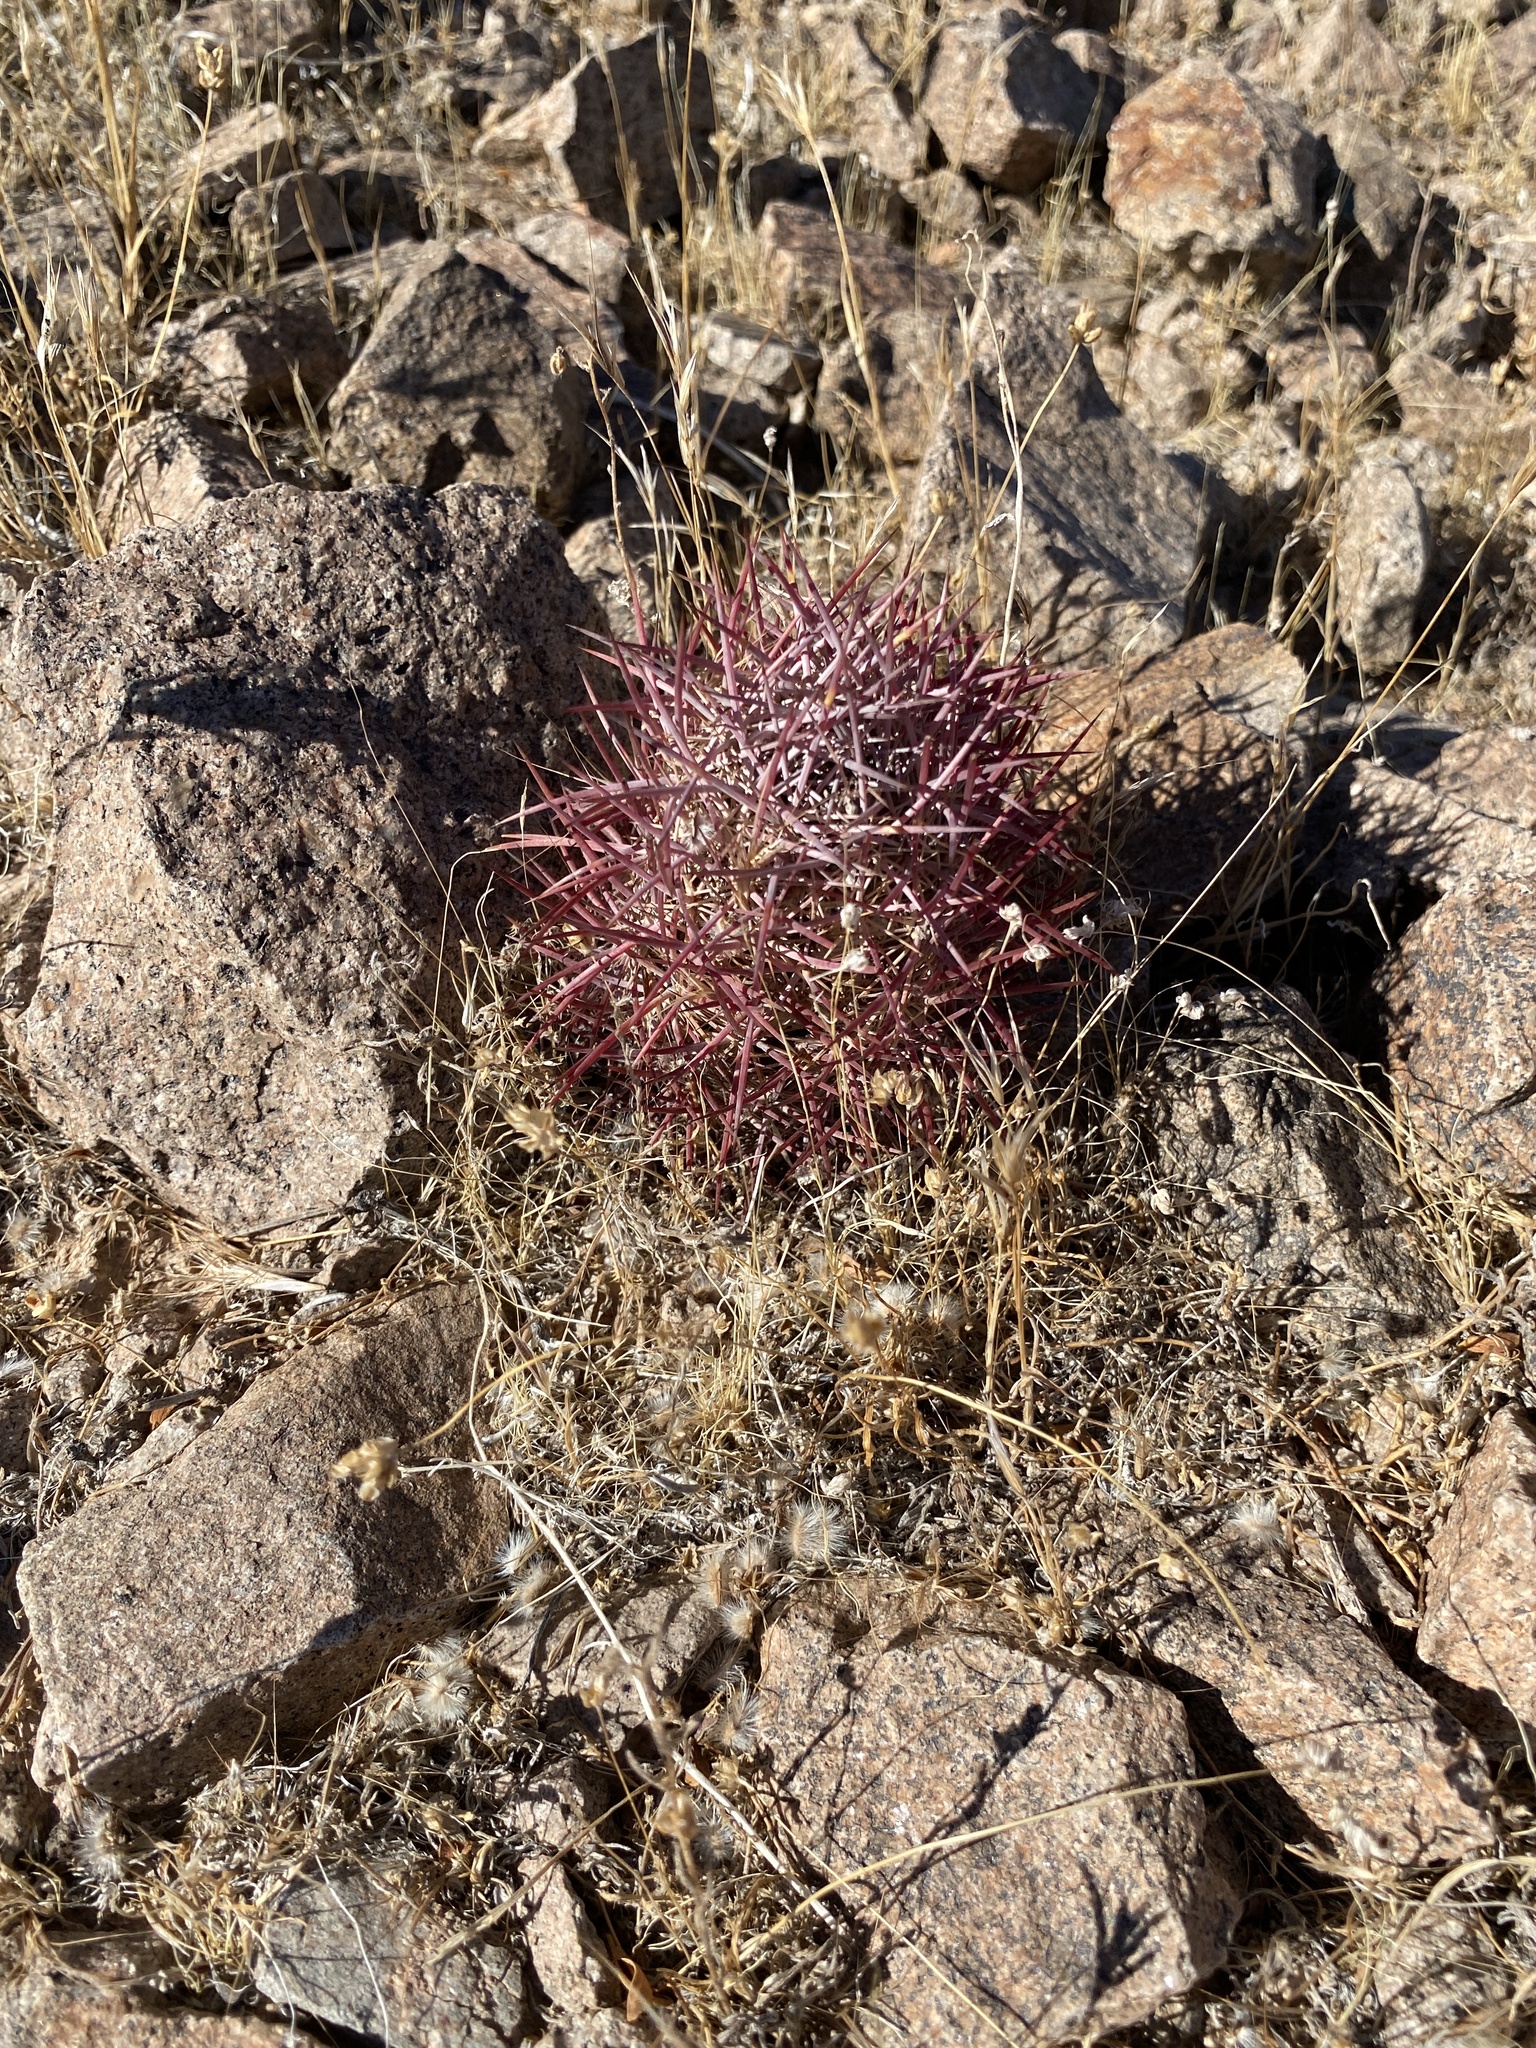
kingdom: Plantae
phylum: Tracheophyta
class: Magnoliopsida
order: Caryophyllales
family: Cactaceae
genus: Sclerocactus
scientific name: Sclerocactus johnsonii
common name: Eight-spine fishhook cactus
